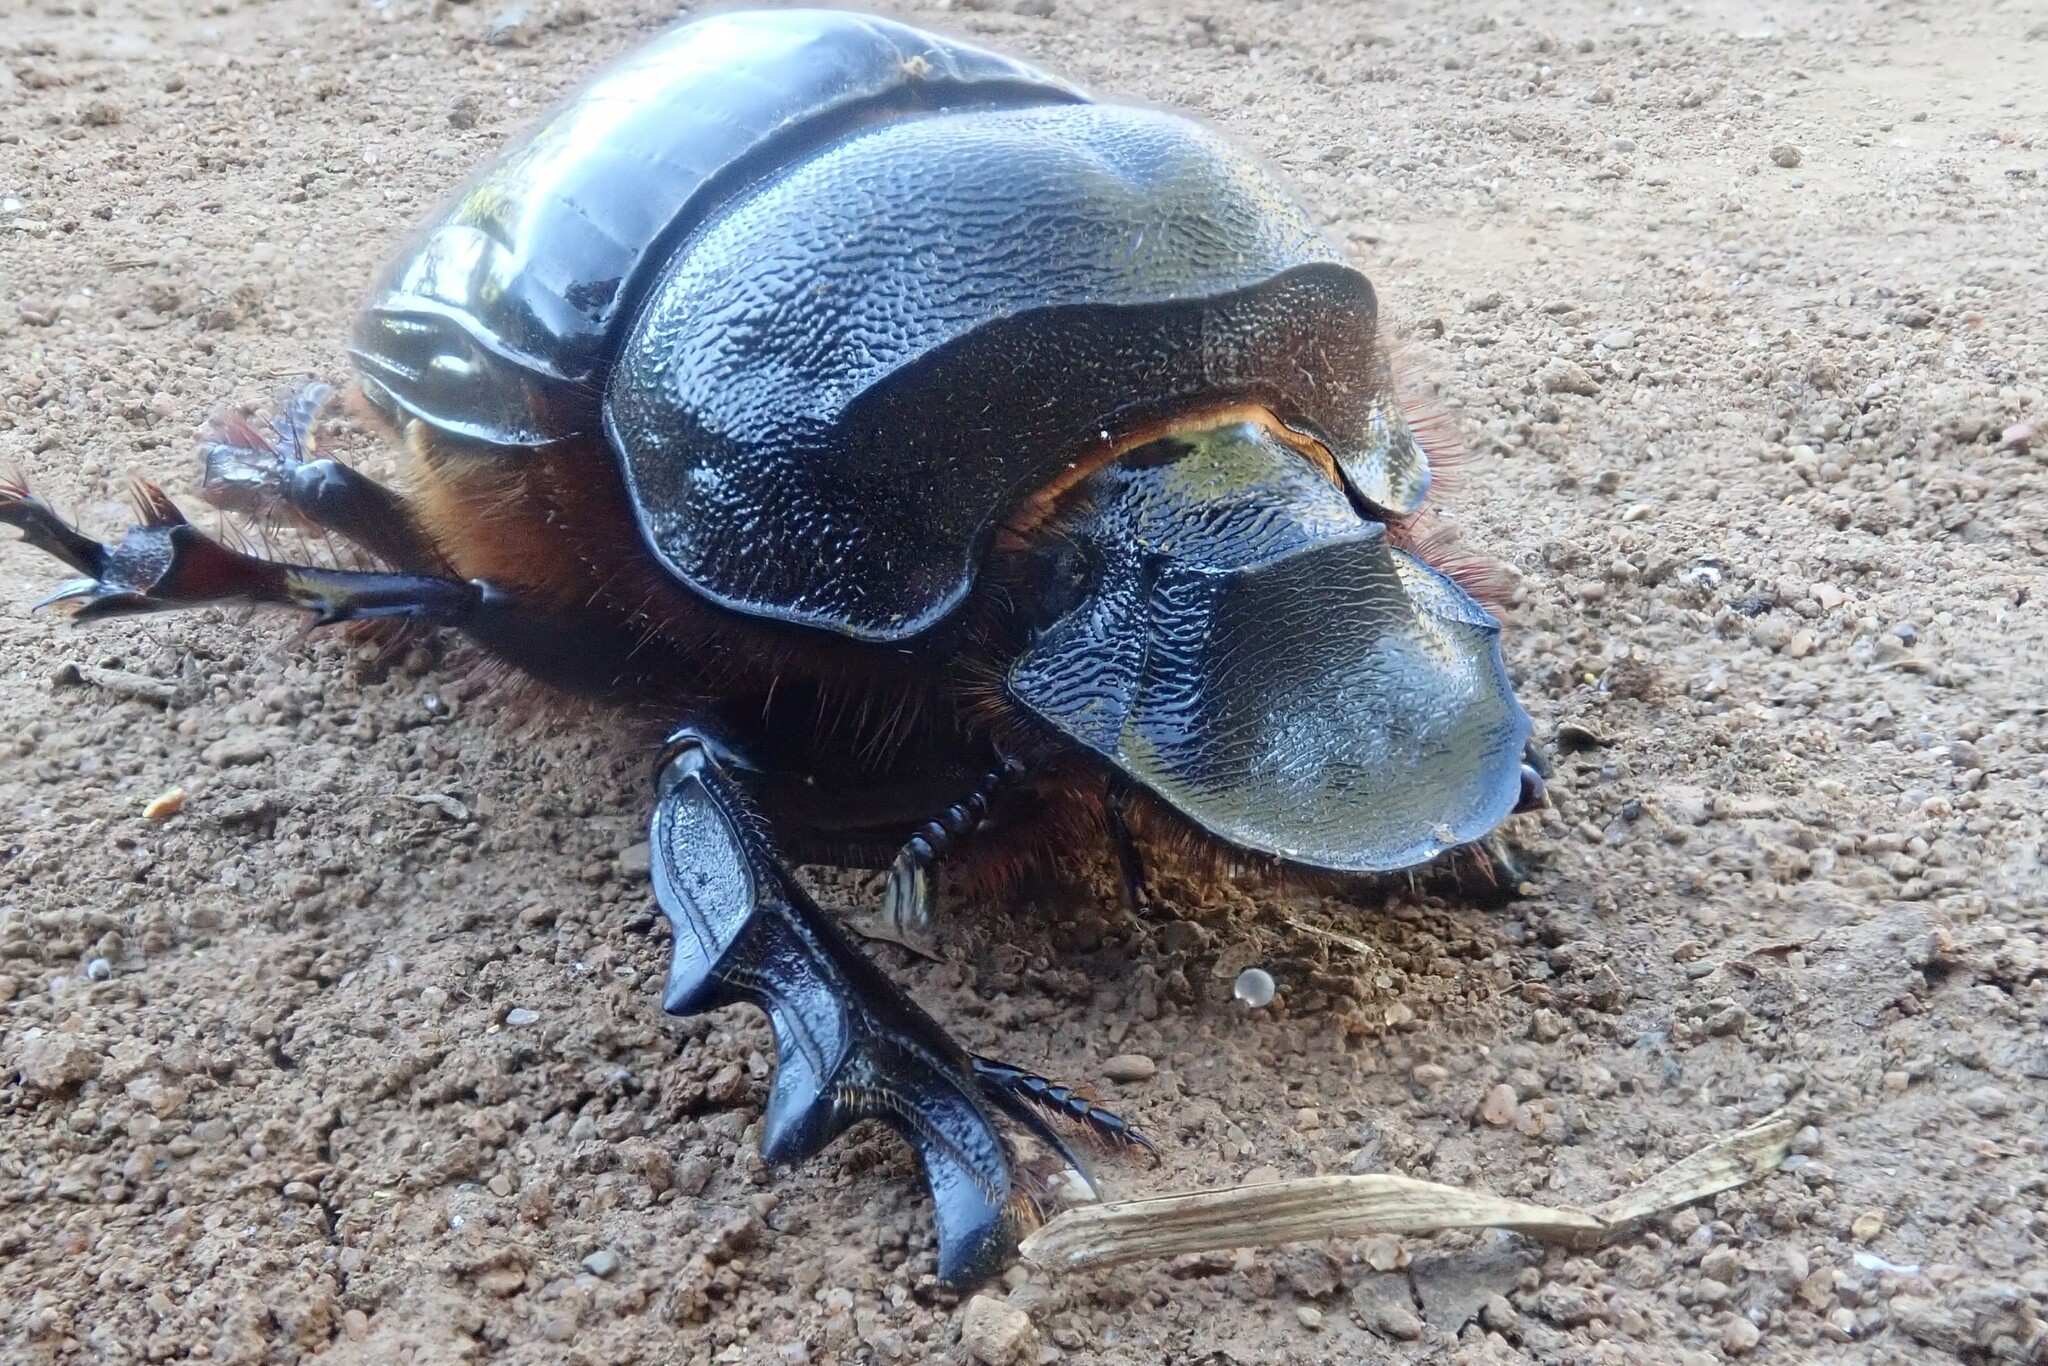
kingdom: Animalia
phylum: Arthropoda
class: Insecta
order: Coleoptera
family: Scarabaeidae
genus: Heliocopris
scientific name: Heliocopris hamadryas
